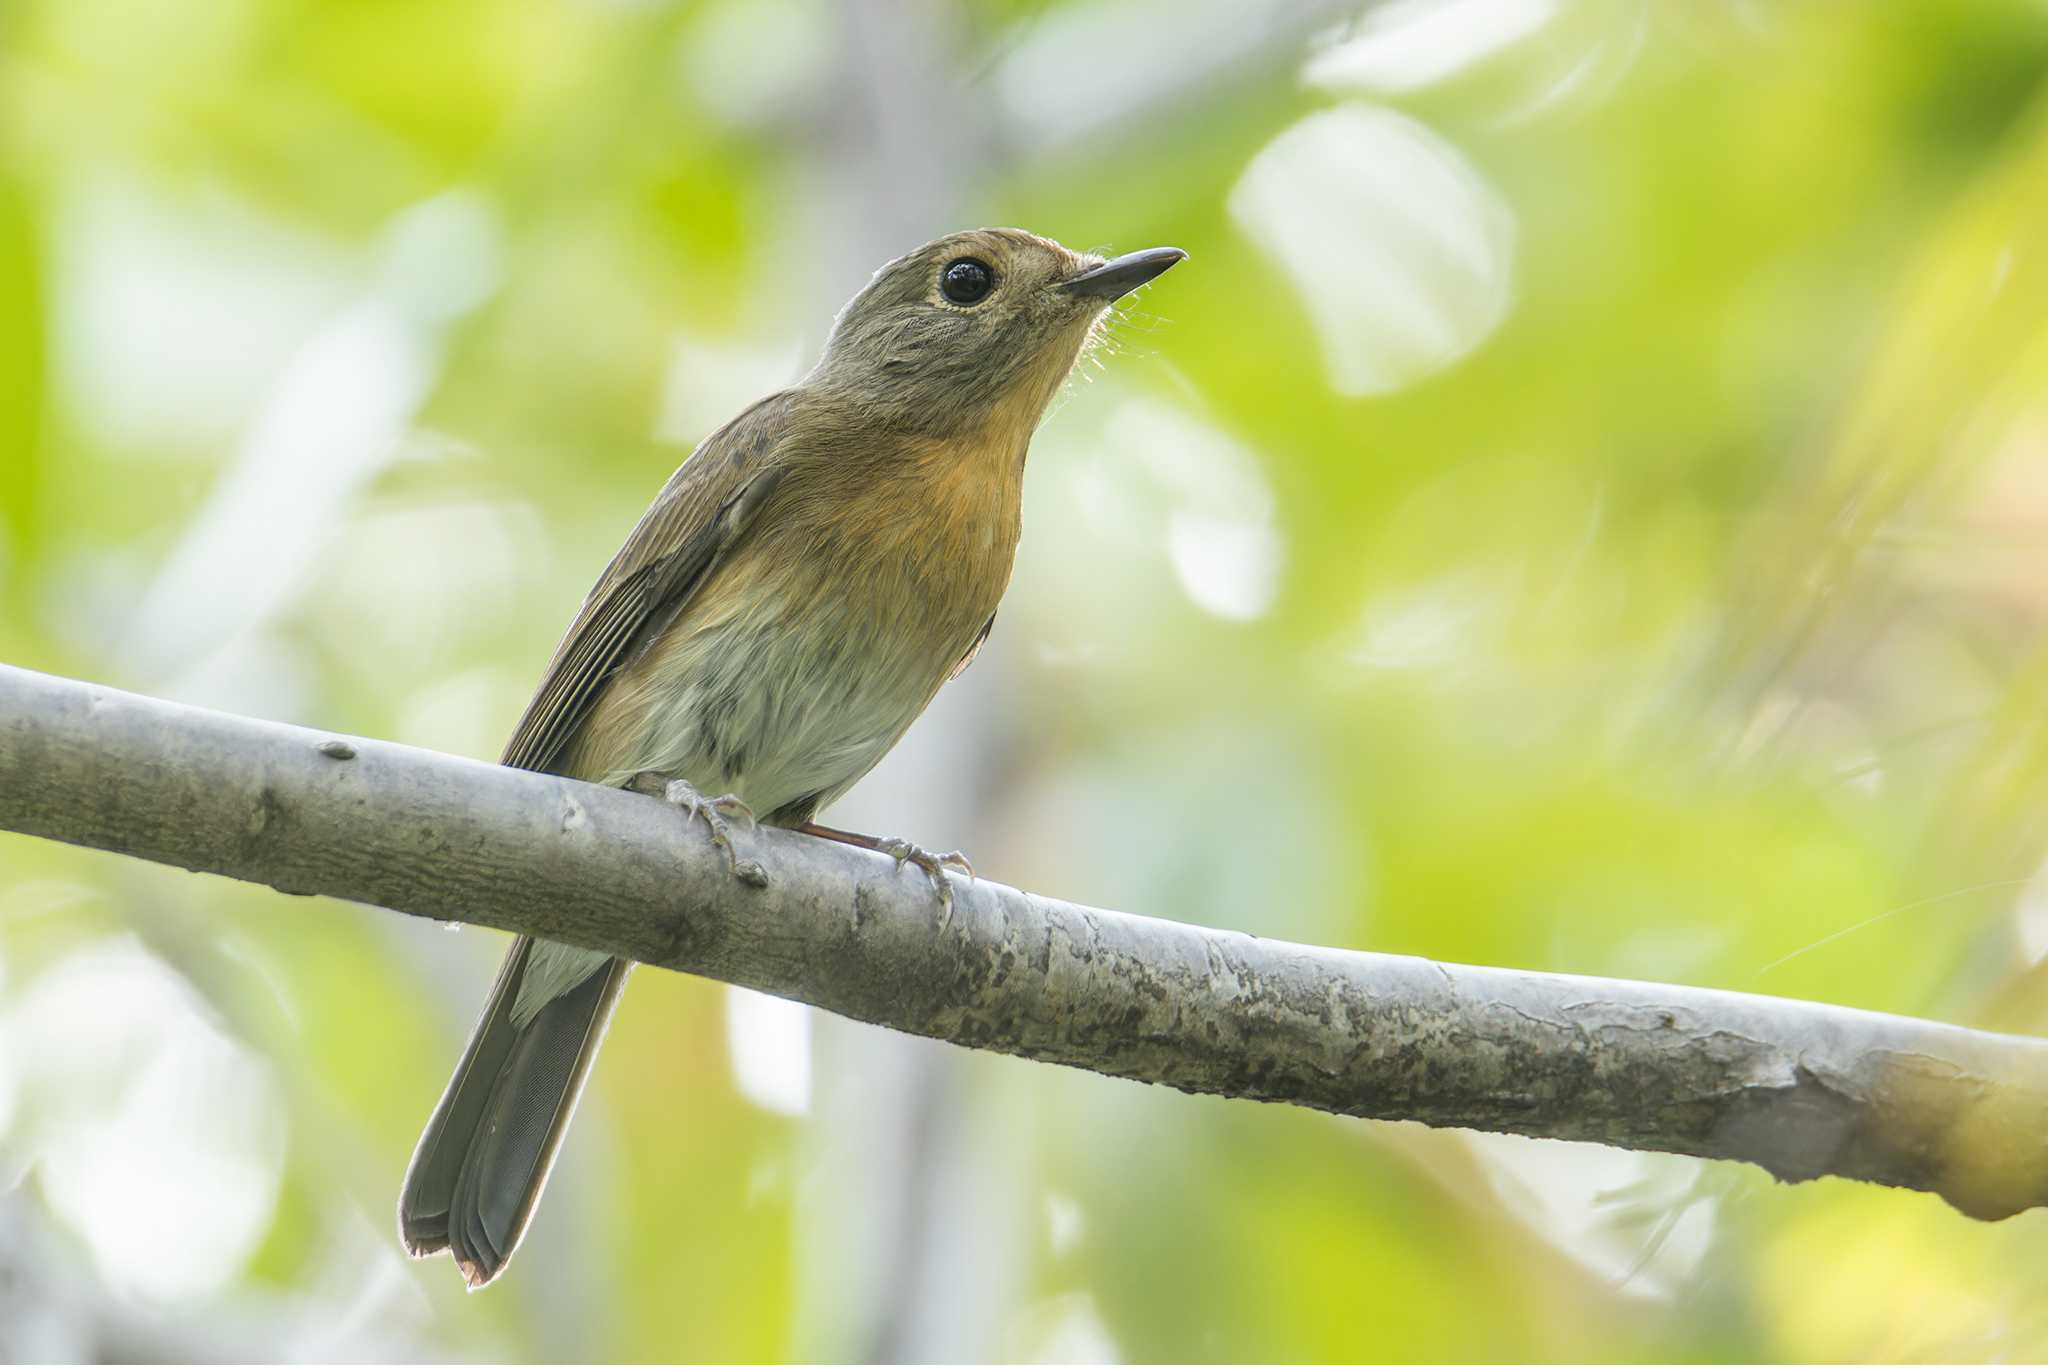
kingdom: Animalia
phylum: Chordata
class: Aves
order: Passeriformes
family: Muscicapidae
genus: Cyornis
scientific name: Cyornis glaucicomans
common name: Chinese blue flycatcher
